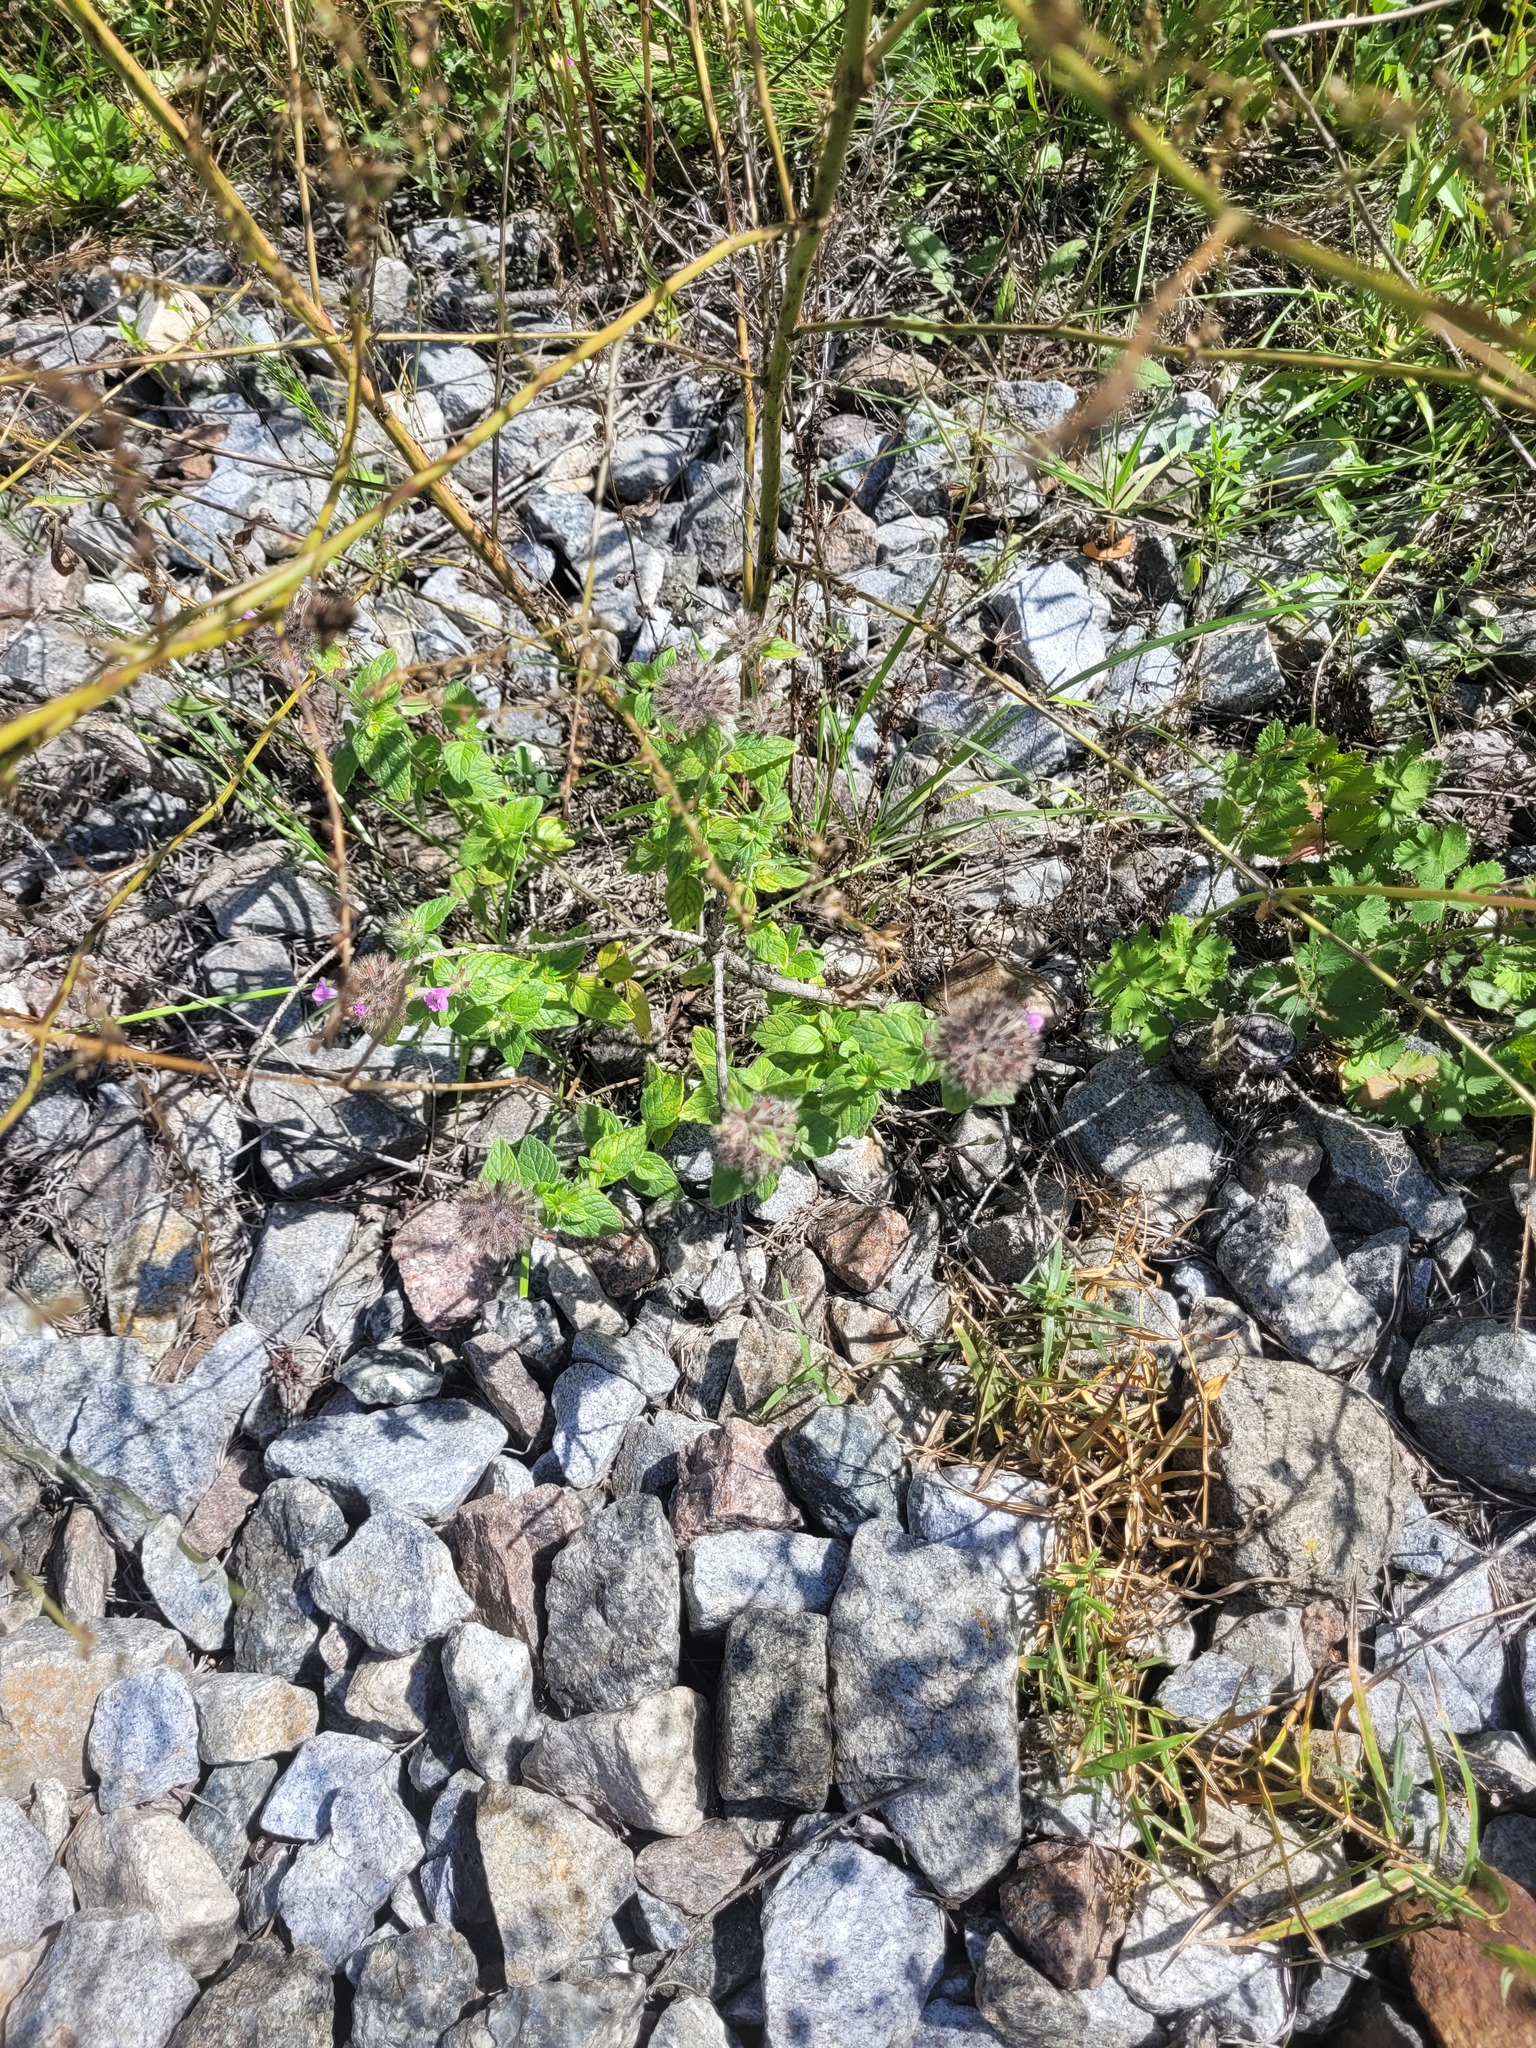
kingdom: Plantae
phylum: Tracheophyta
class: Magnoliopsida
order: Lamiales
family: Lamiaceae
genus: Clinopodium
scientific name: Clinopodium vulgare
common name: Wild basil
